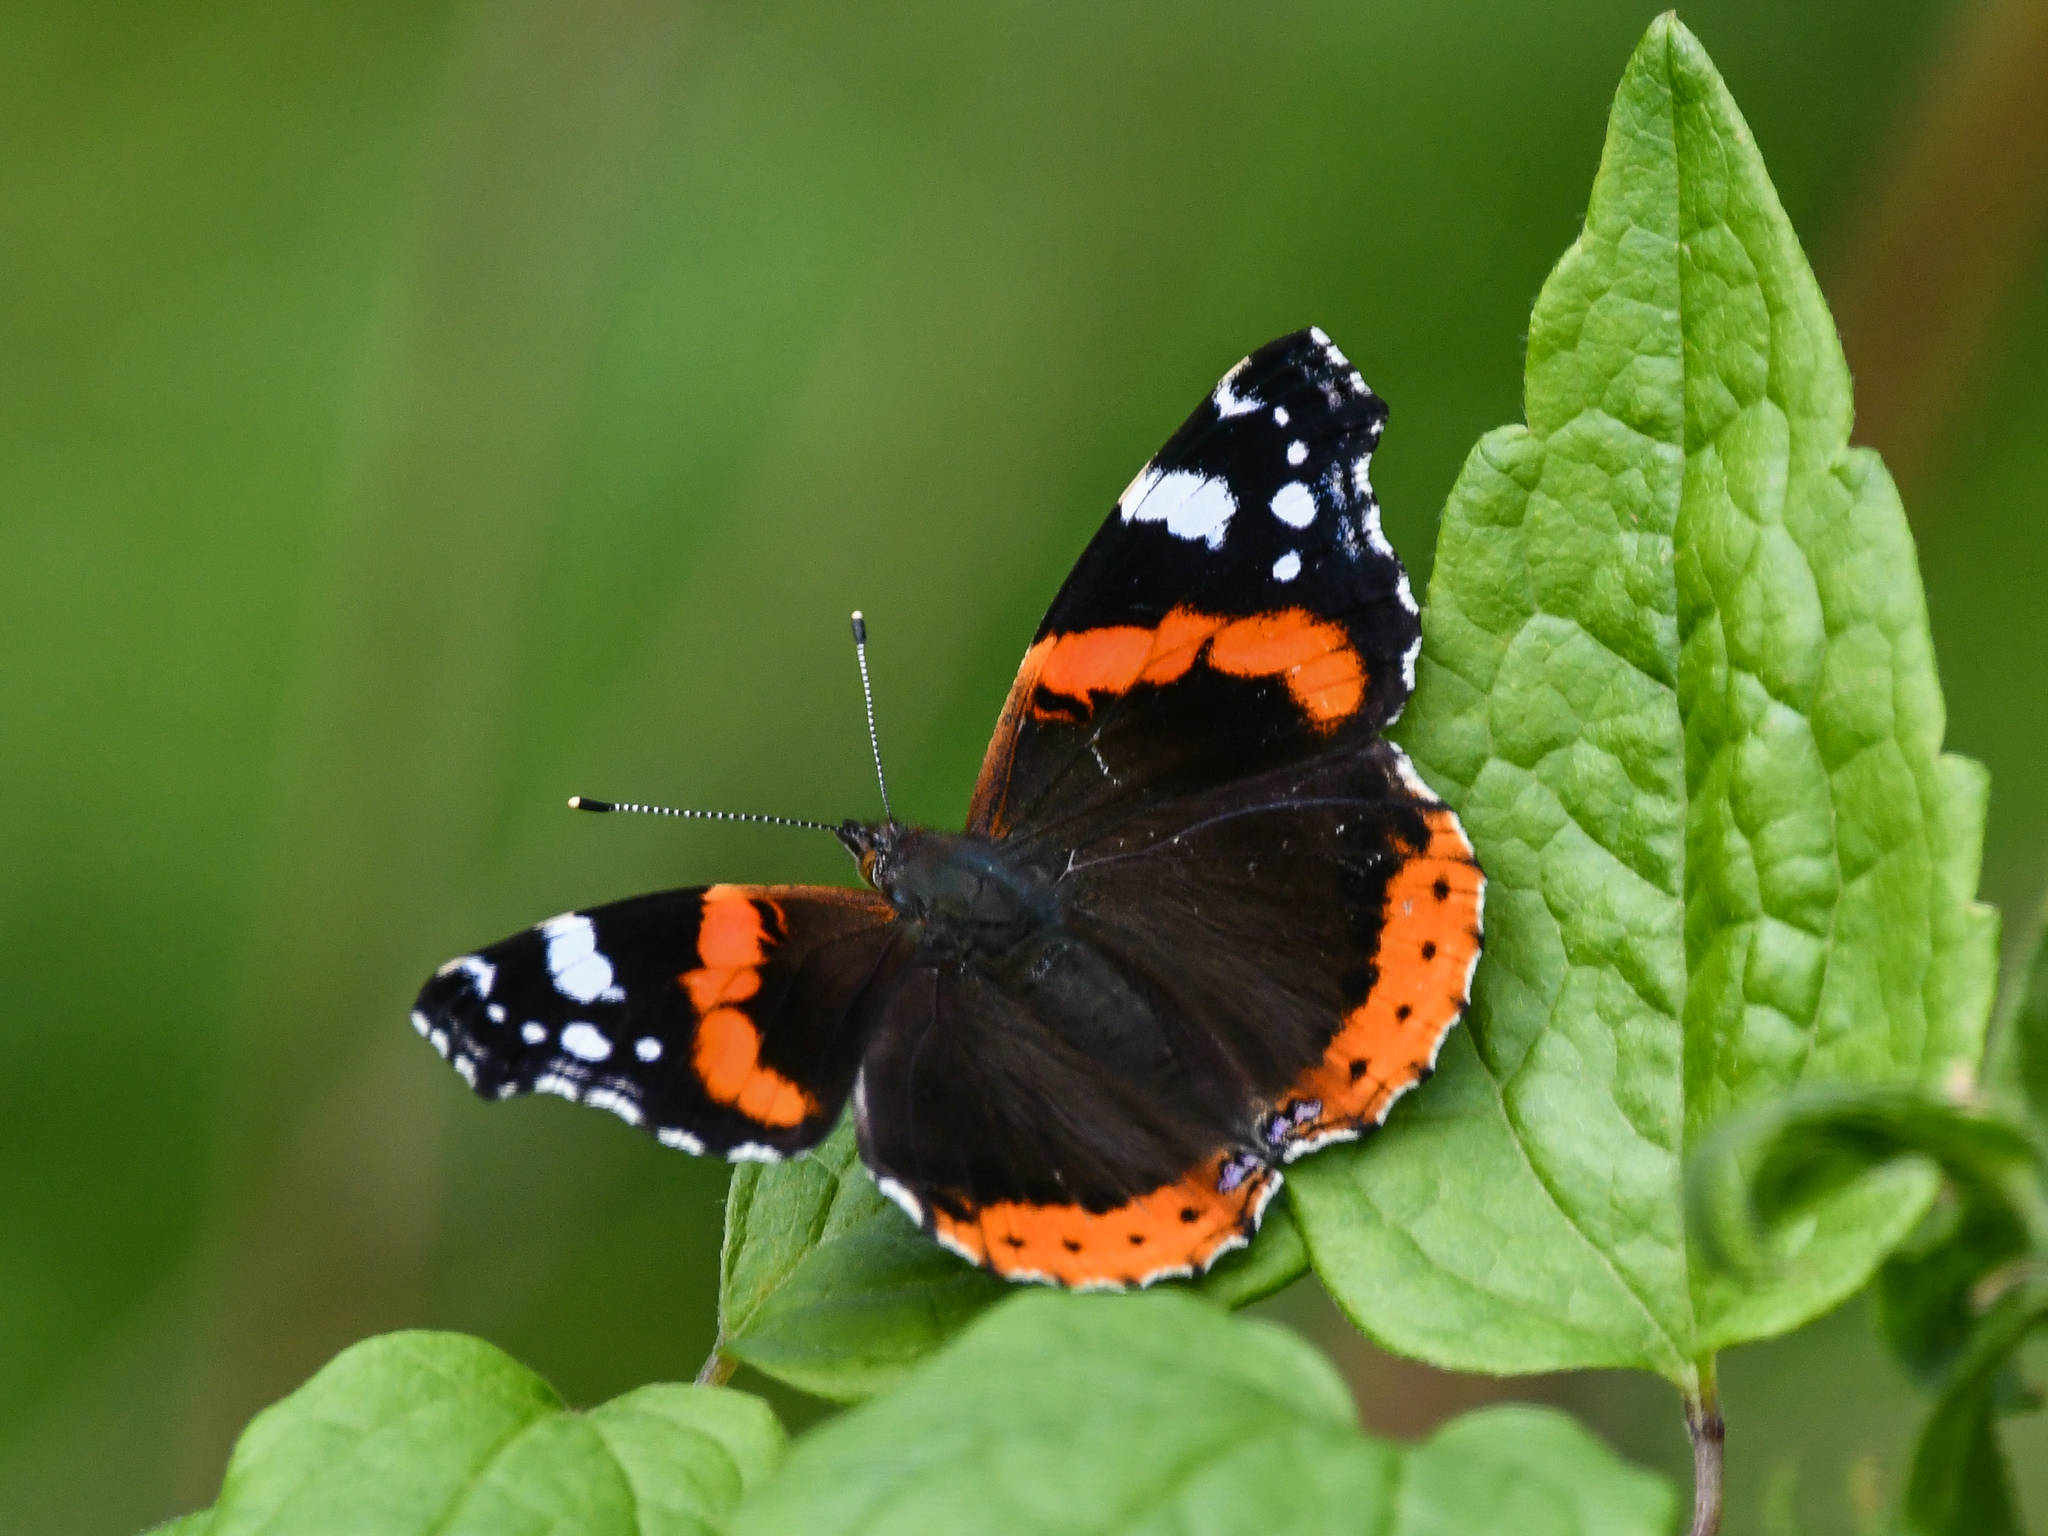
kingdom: Animalia
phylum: Arthropoda
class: Insecta
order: Lepidoptera
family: Nymphalidae
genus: Vanessa
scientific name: Vanessa atalanta
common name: Red admiral
